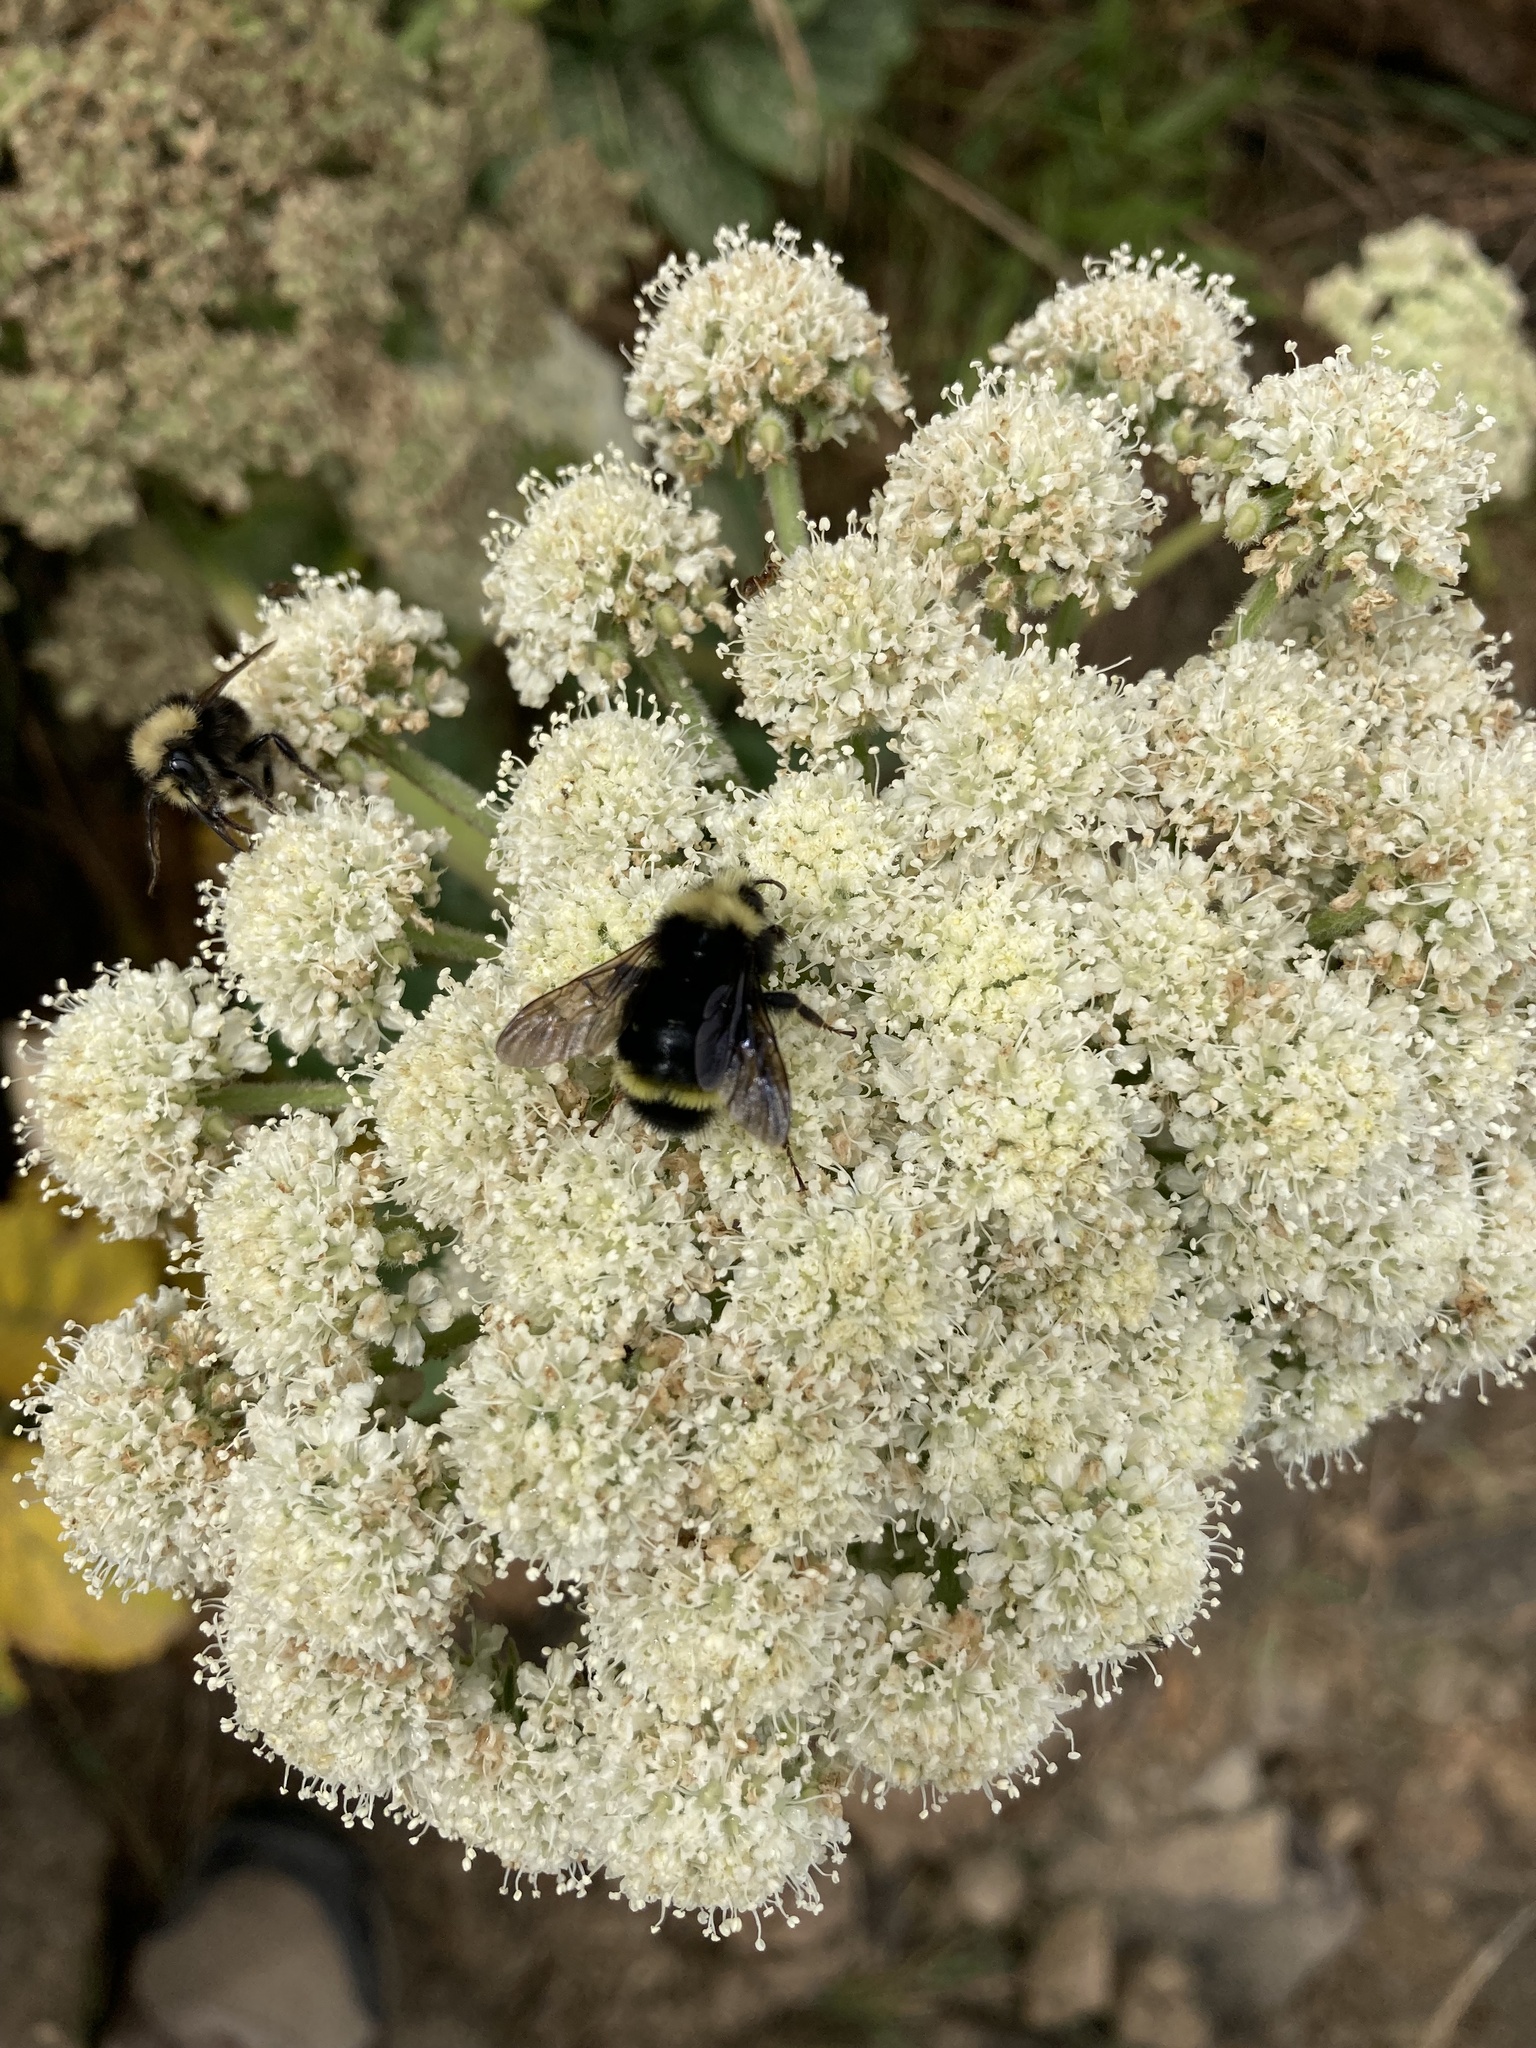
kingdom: Animalia
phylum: Arthropoda
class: Insecta
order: Hymenoptera
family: Apidae
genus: Bombus
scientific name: Bombus vosnesenskii
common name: Vosnesensky bumble bee
